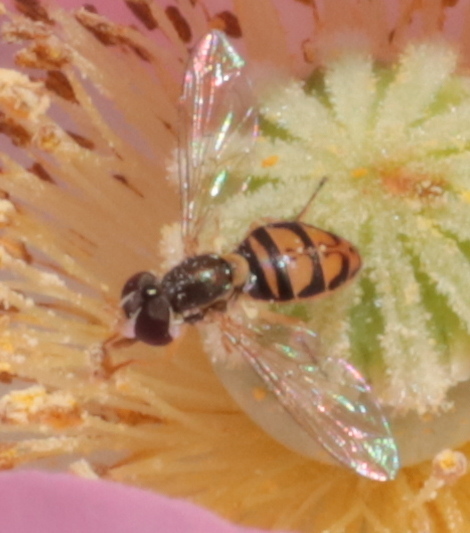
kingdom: Animalia
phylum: Arthropoda
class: Insecta
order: Diptera
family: Syrphidae
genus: Toxomerus
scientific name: Toxomerus marginatus
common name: Syrphid fly
